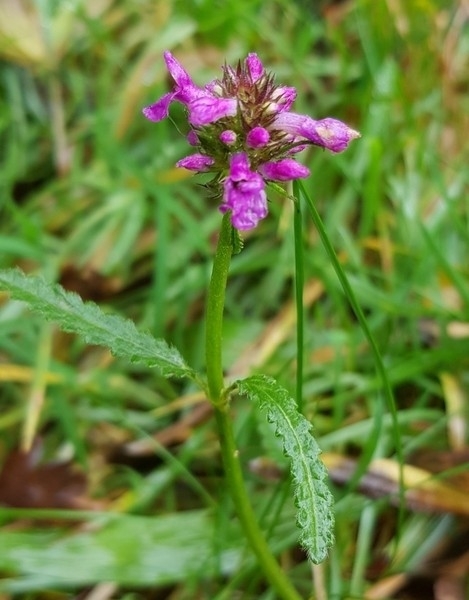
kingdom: Plantae
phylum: Tracheophyta
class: Magnoliopsida
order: Lamiales
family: Lamiaceae
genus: Betonica
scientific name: Betonica officinalis
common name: Bishop's-wort
